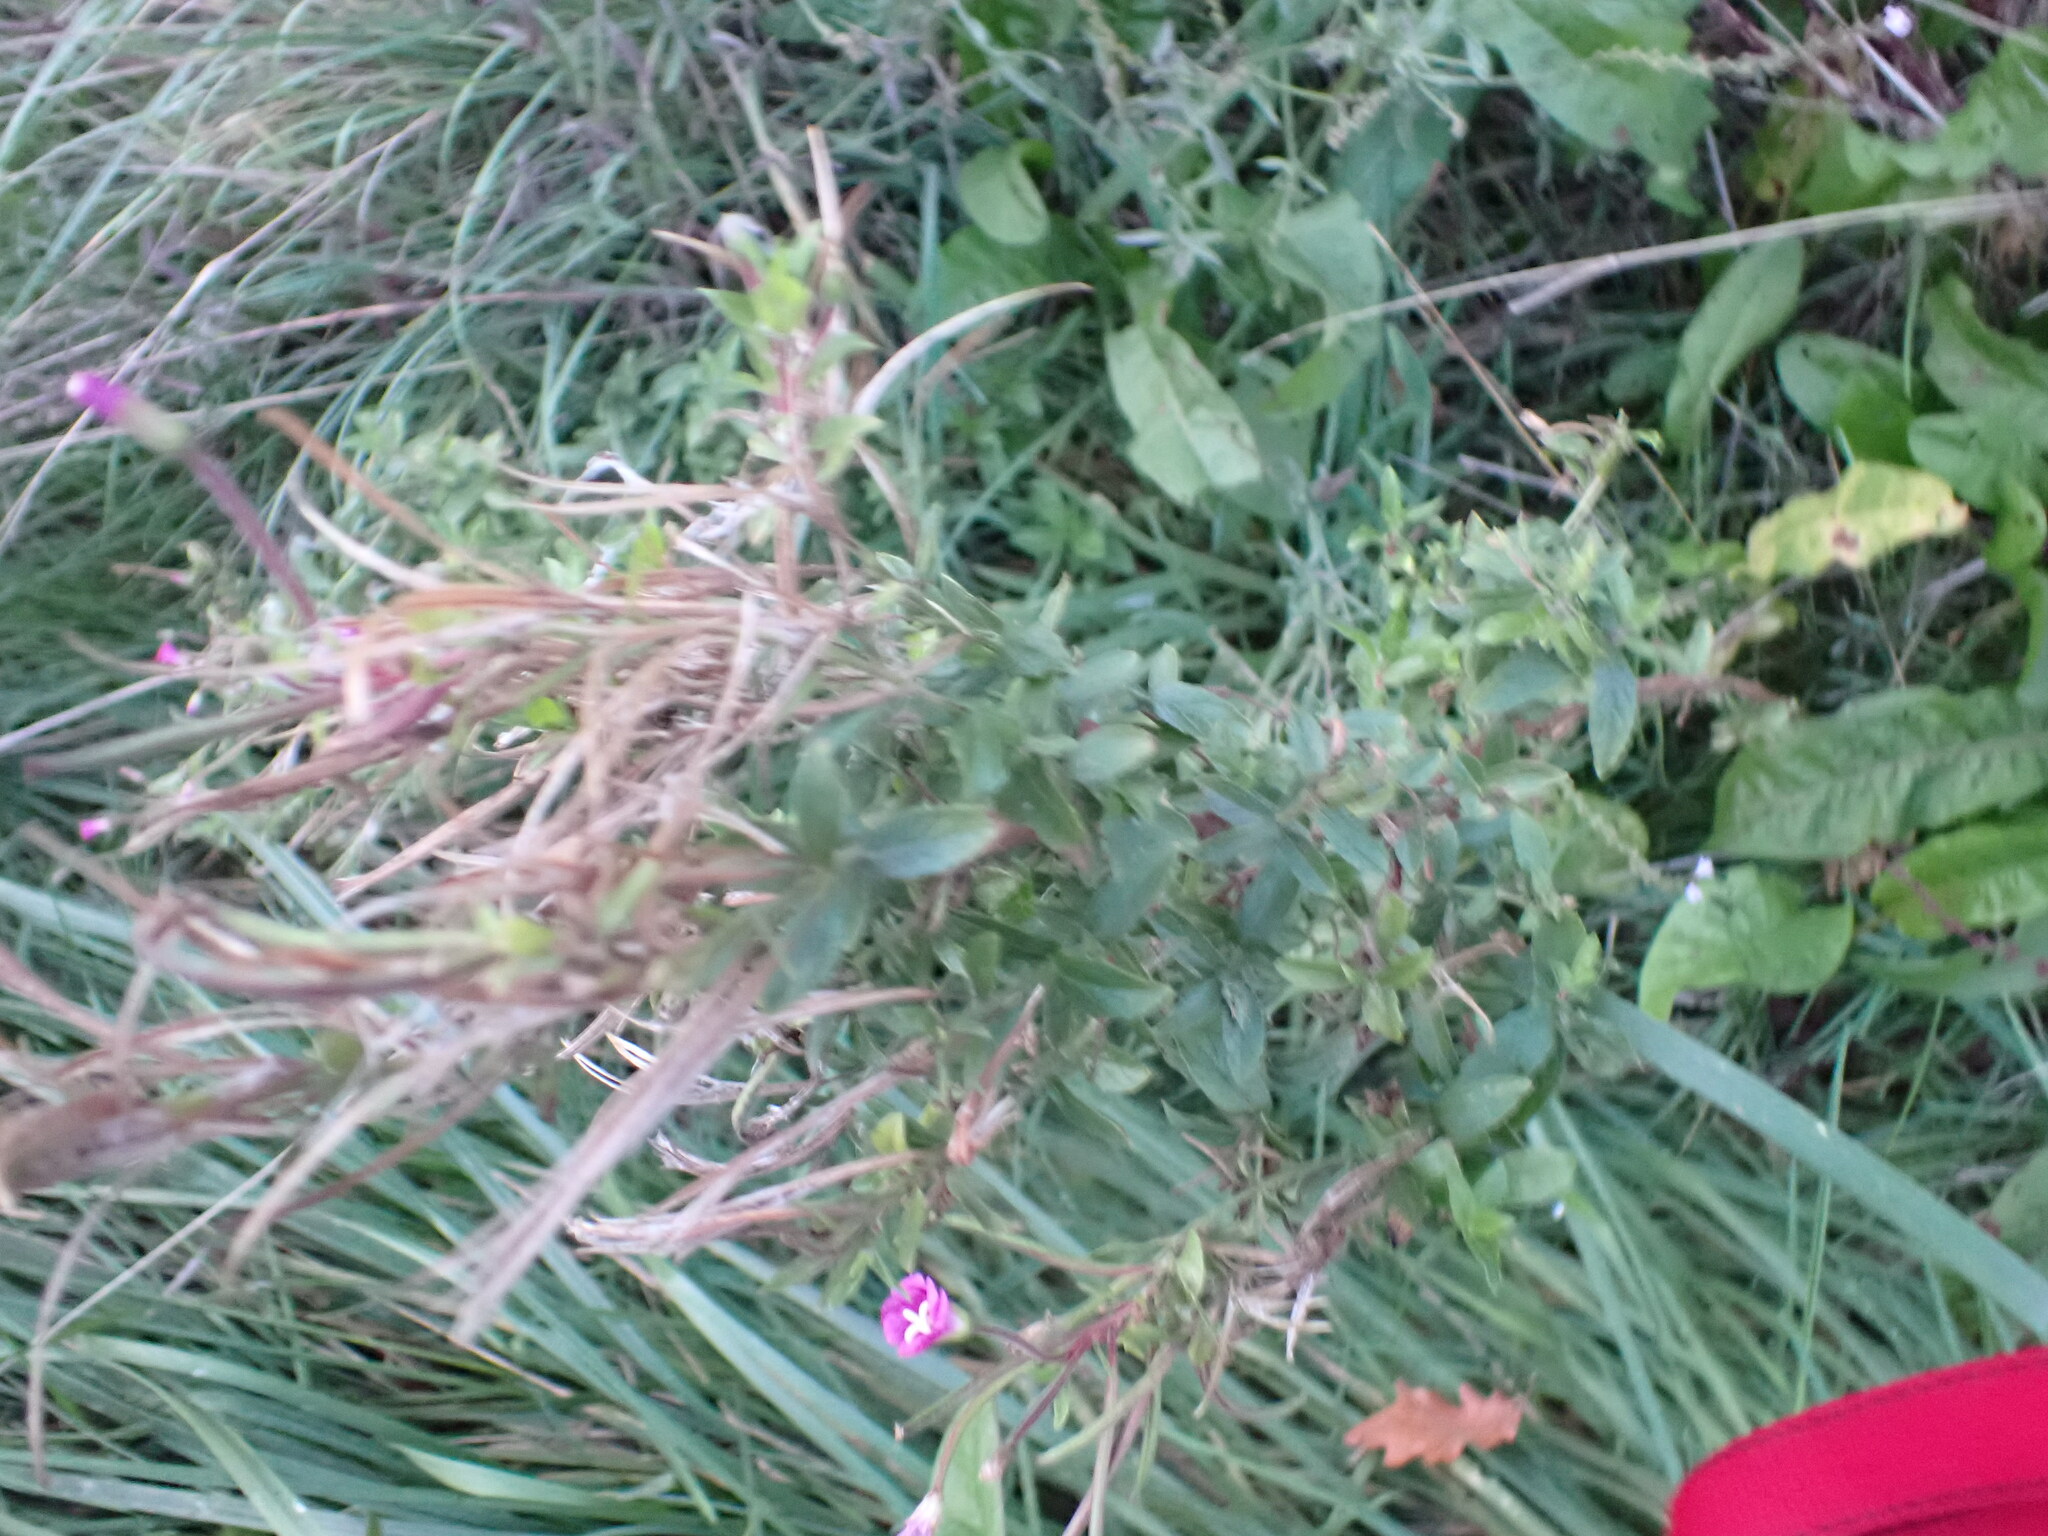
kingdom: Plantae
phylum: Tracheophyta
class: Magnoliopsida
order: Myrtales
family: Onagraceae
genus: Epilobium
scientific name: Epilobium hirsutum
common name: Great willowherb
